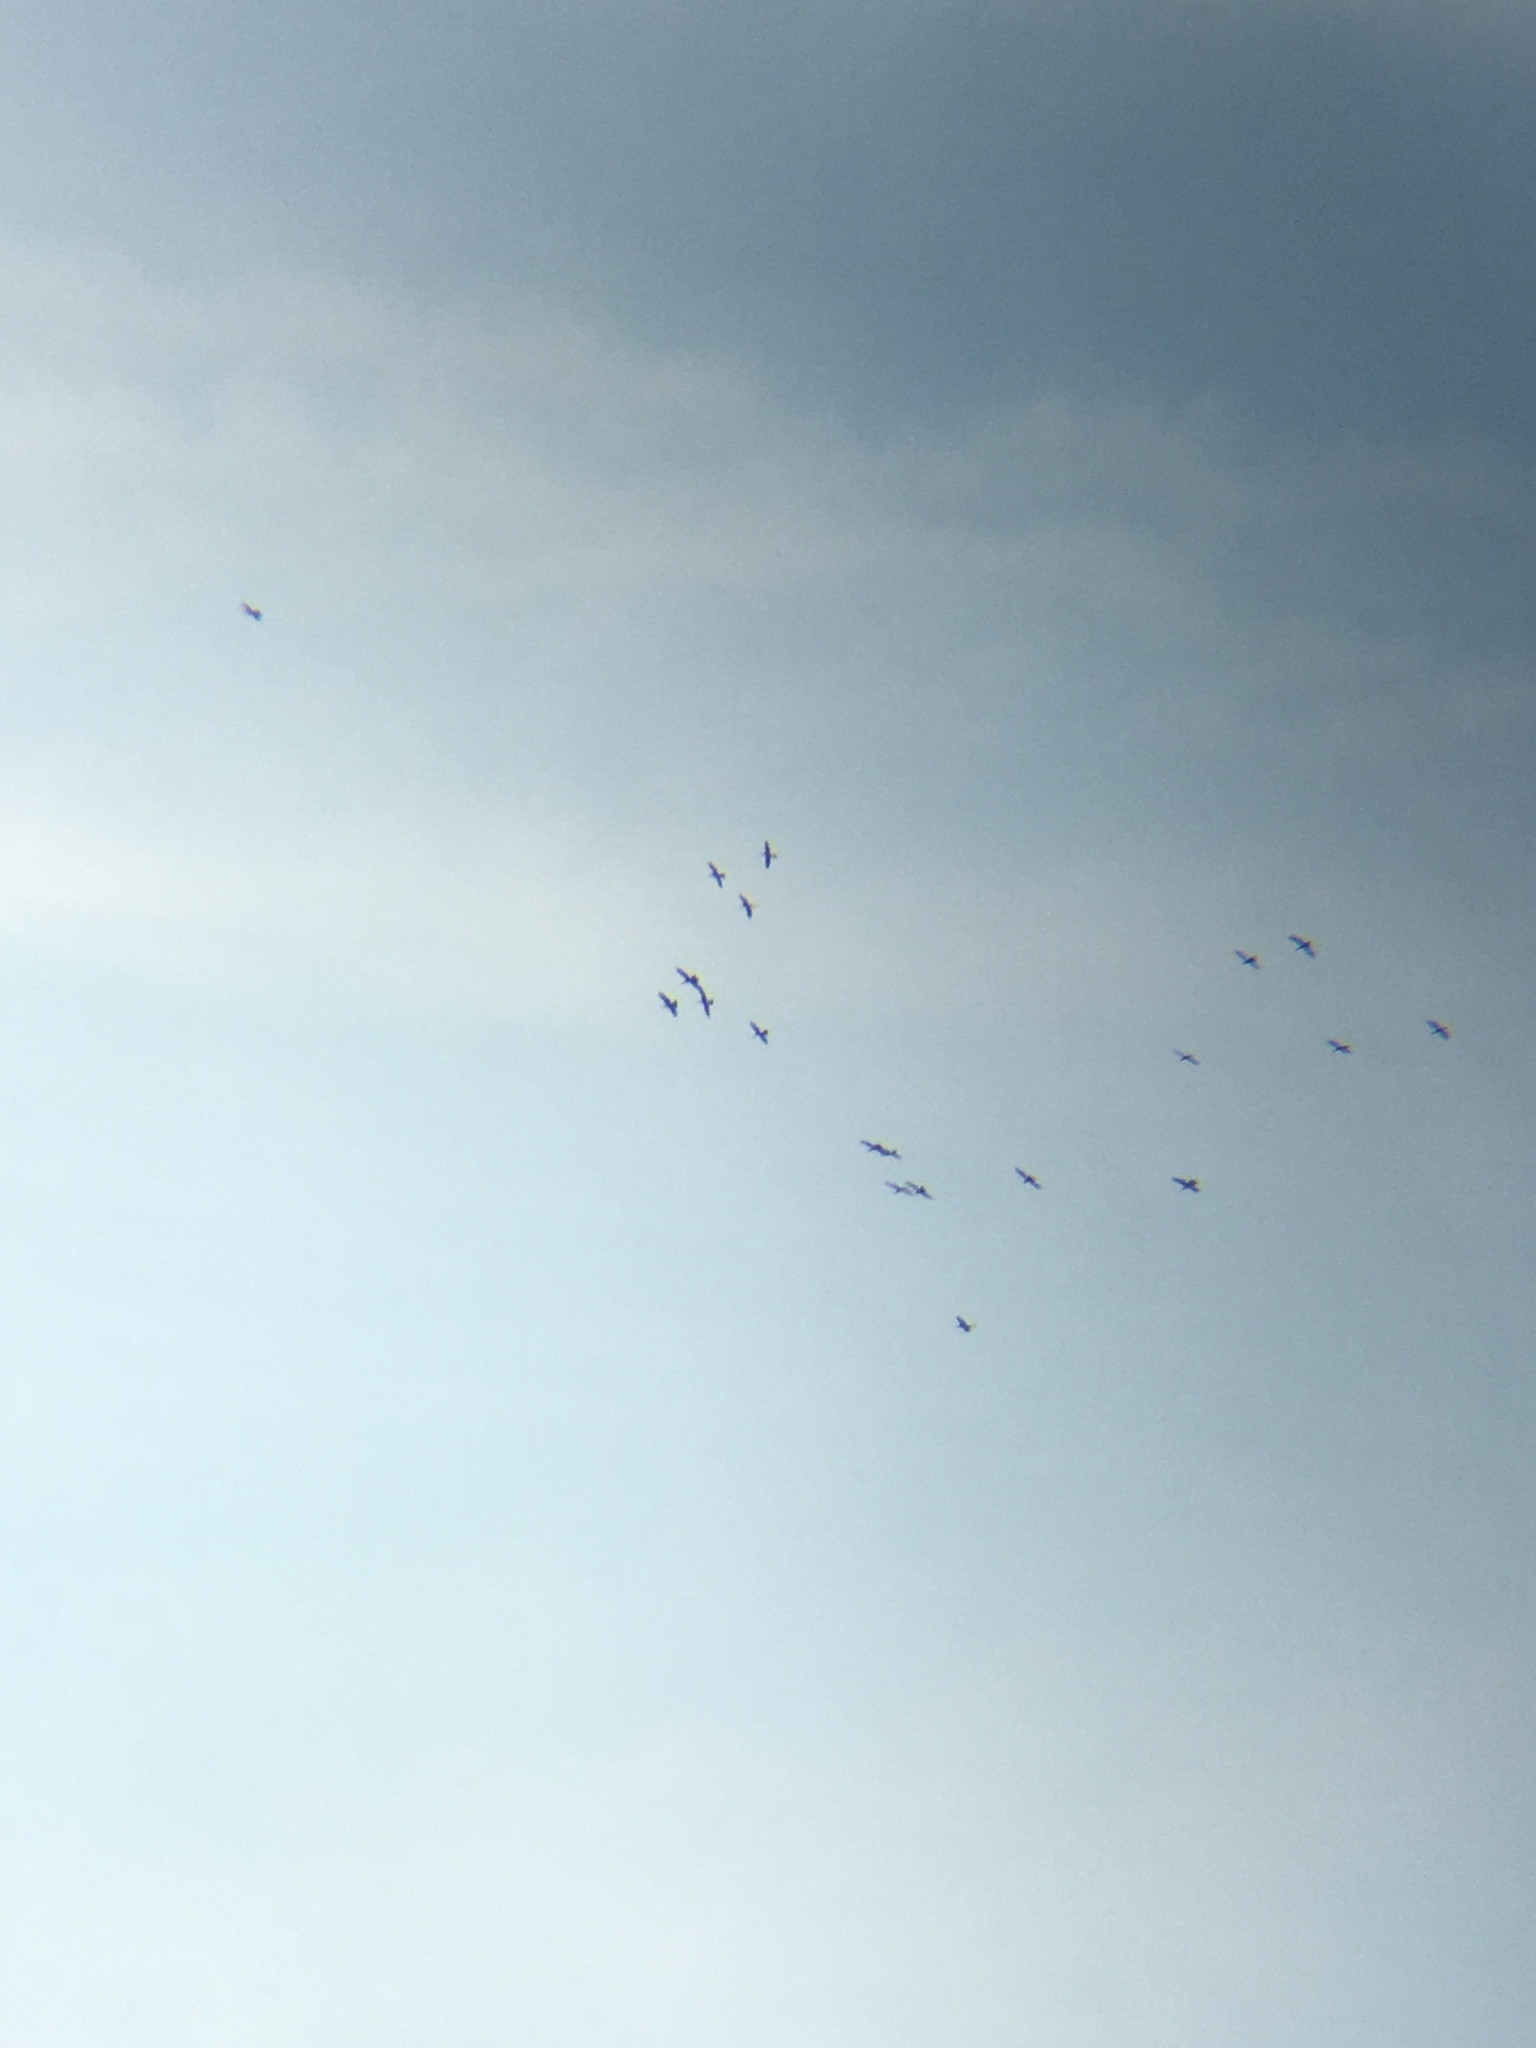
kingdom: Animalia
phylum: Chordata
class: Aves
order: Suliformes
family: Anhingidae
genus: Anhinga
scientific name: Anhinga anhinga
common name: Anhinga
